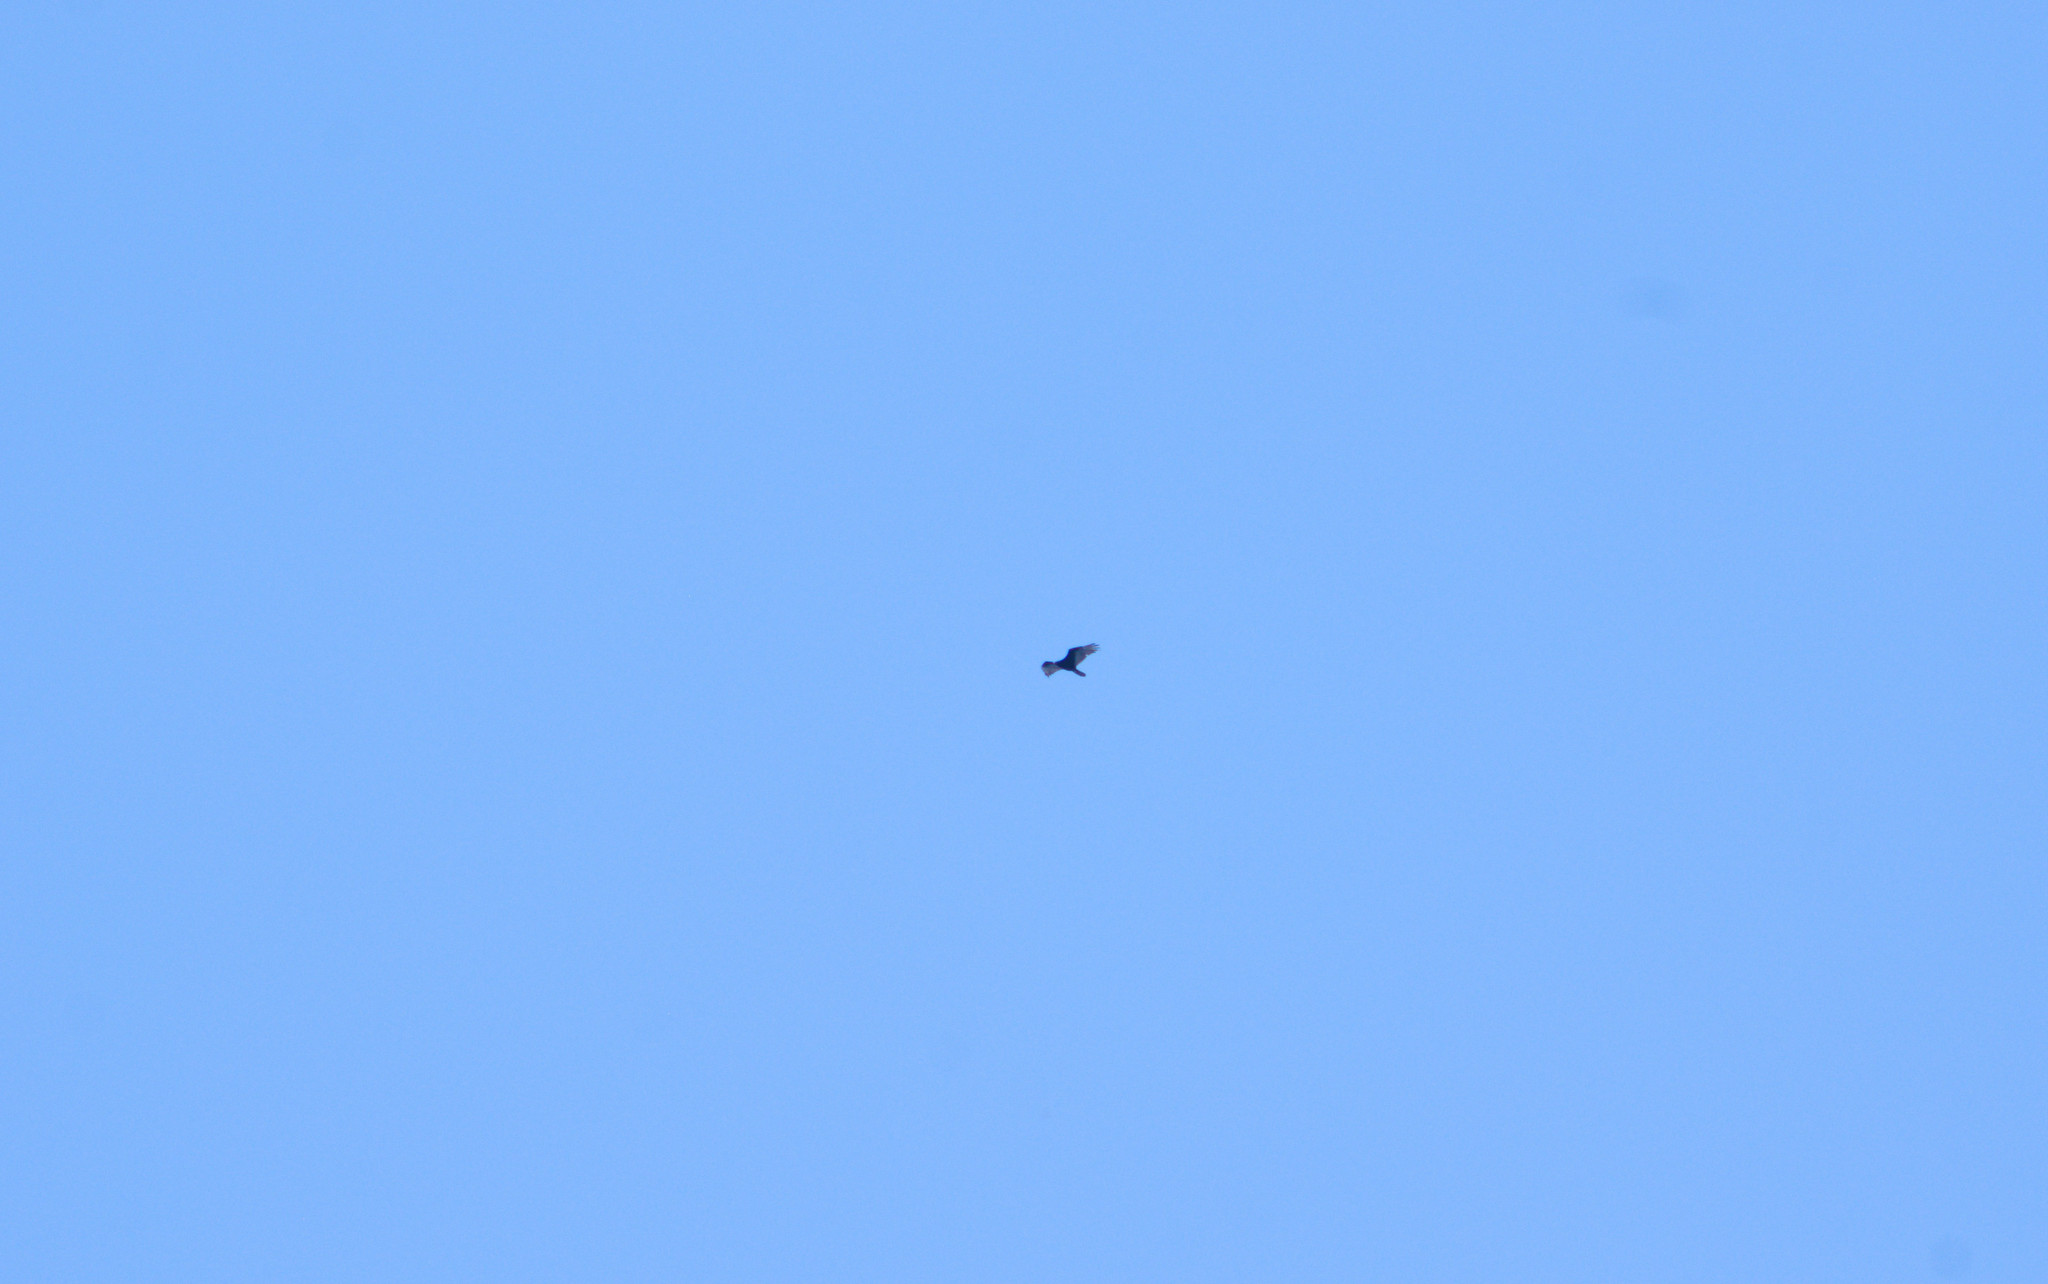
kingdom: Animalia
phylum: Chordata
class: Aves
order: Accipitriformes
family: Cathartidae
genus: Cathartes
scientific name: Cathartes aura
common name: Turkey vulture
